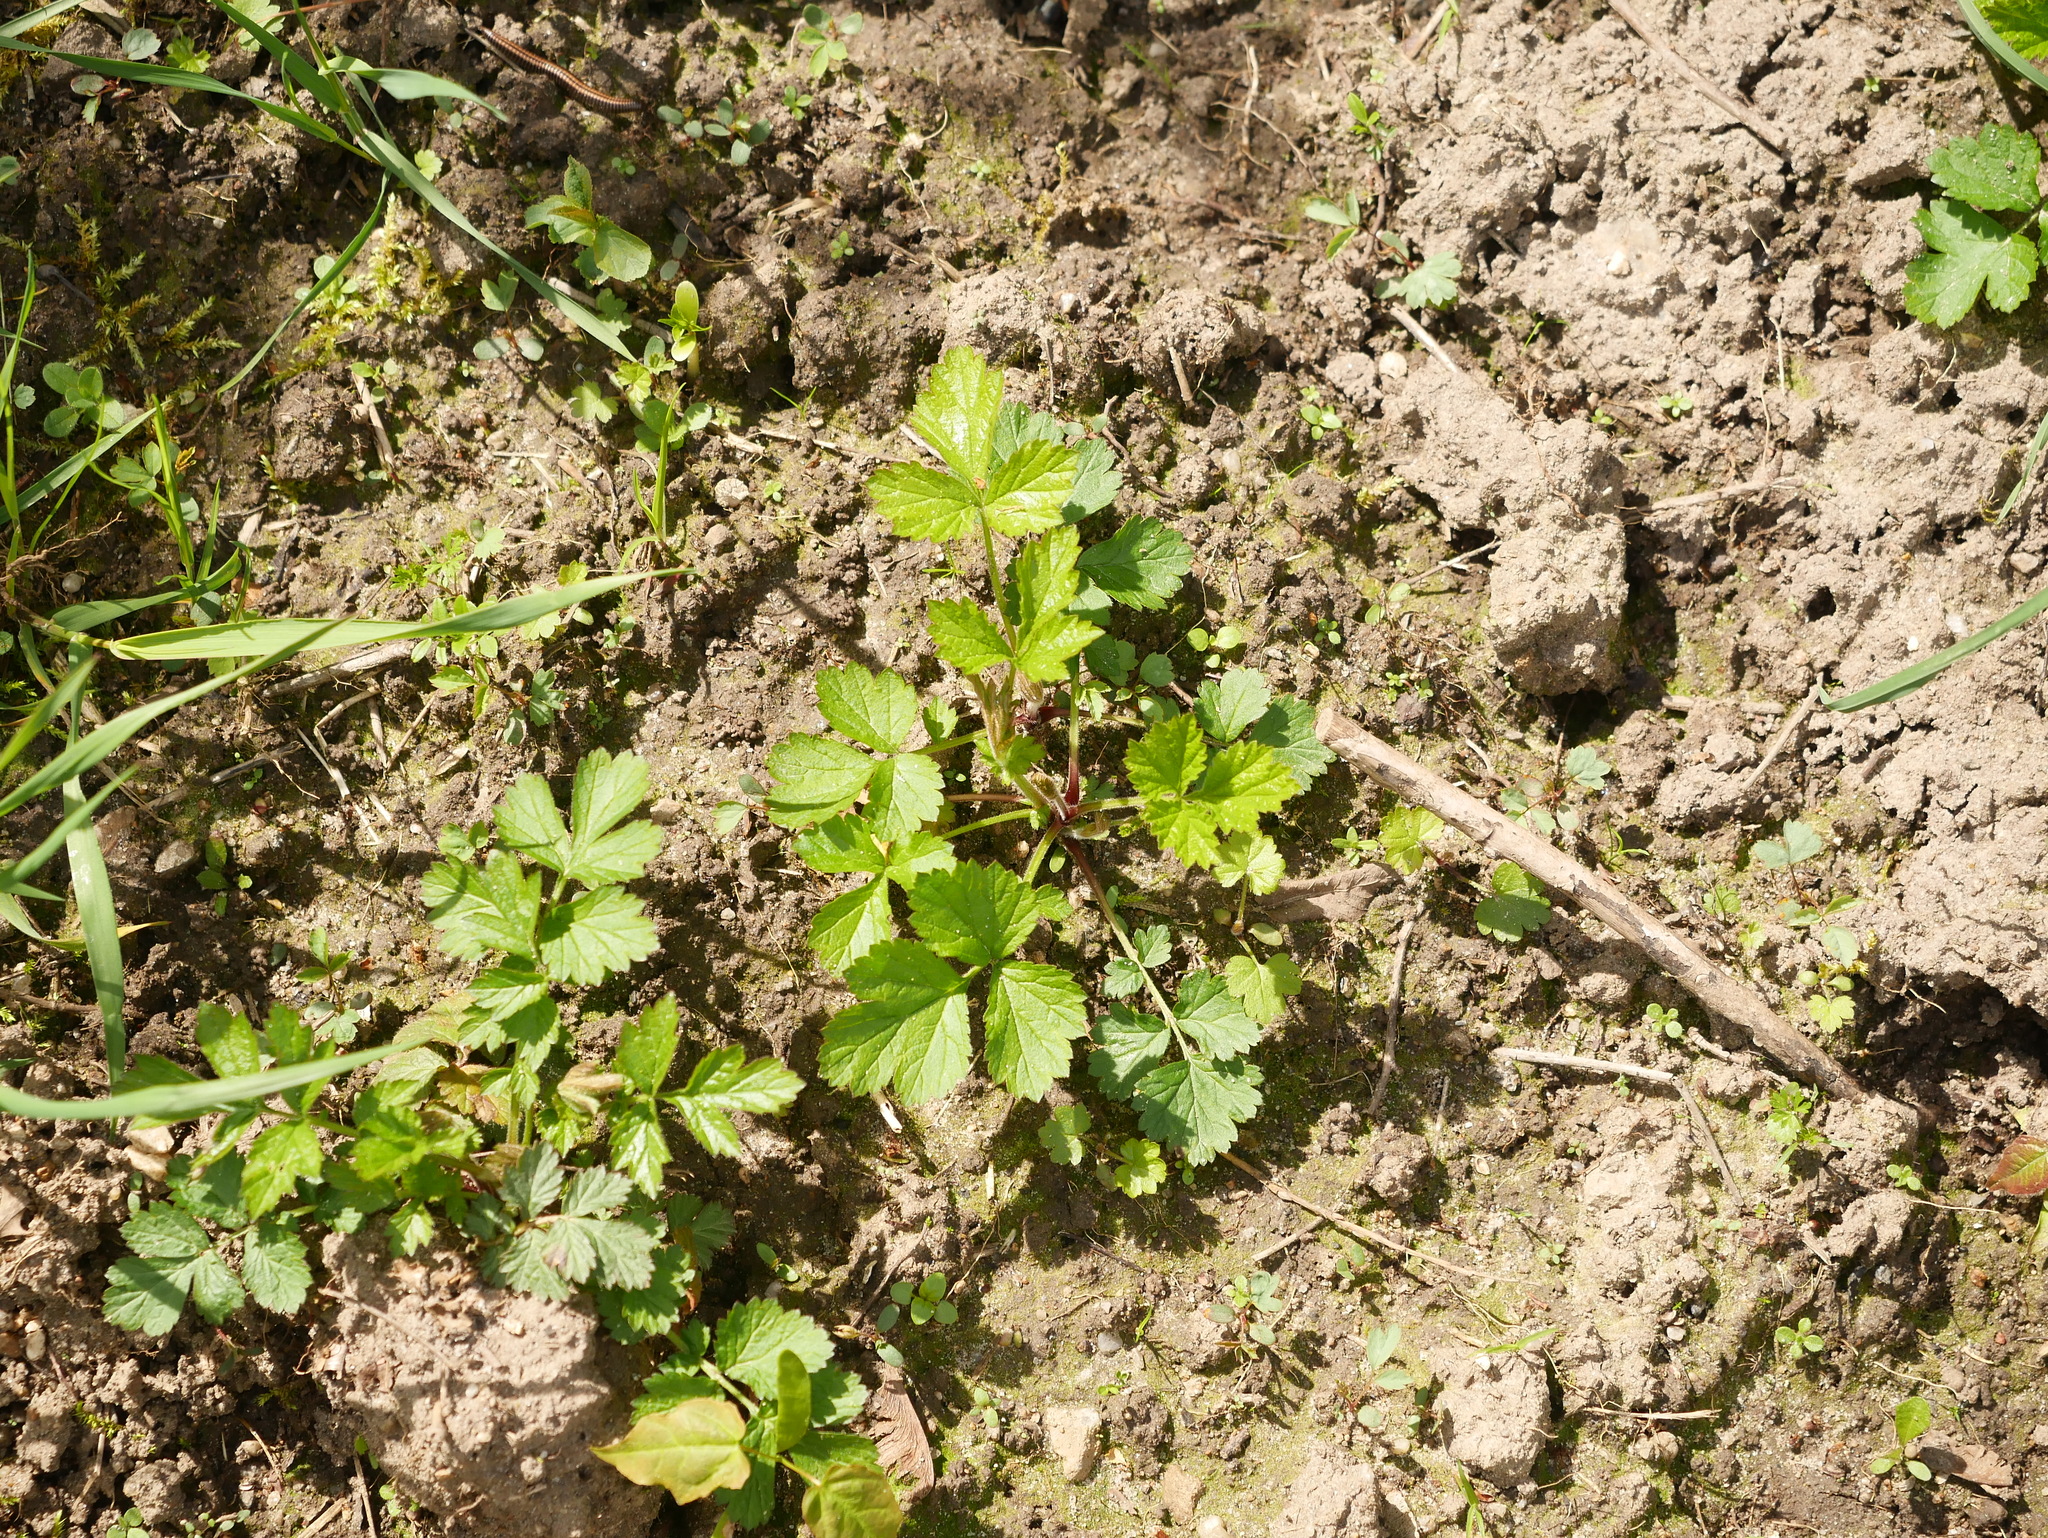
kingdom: Plantae
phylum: Tracheophyta
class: Magnoliopsida
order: Rosales
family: Rosaceae
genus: Geum
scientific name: Geum urbanum
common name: Wood avens
